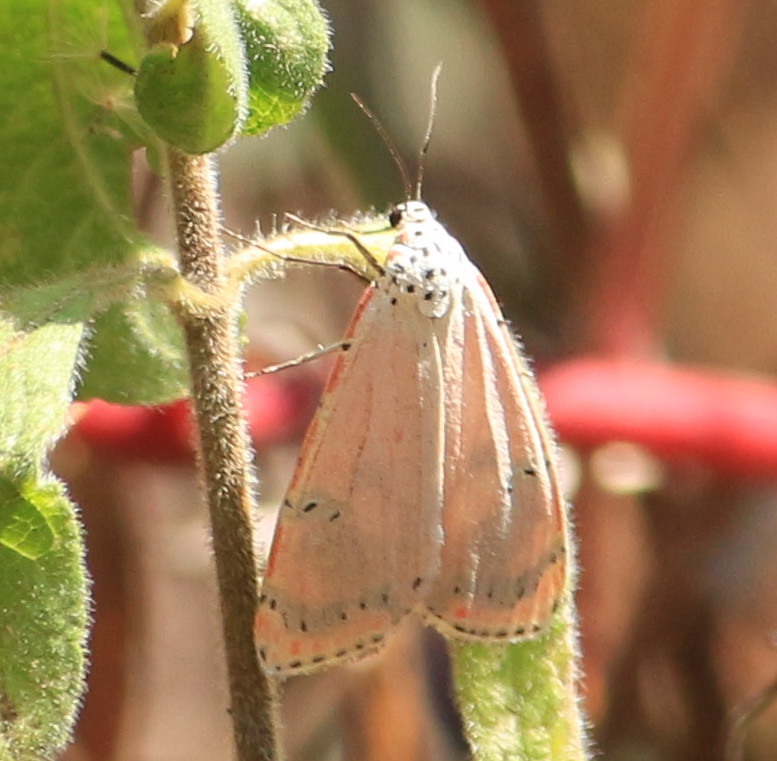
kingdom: Animalia
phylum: Arthropoda
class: Insecta
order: Lepidoptera
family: Erebidae
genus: Utetheisa
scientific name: Utetheisa ornatrix
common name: Beautiful utetheisa
